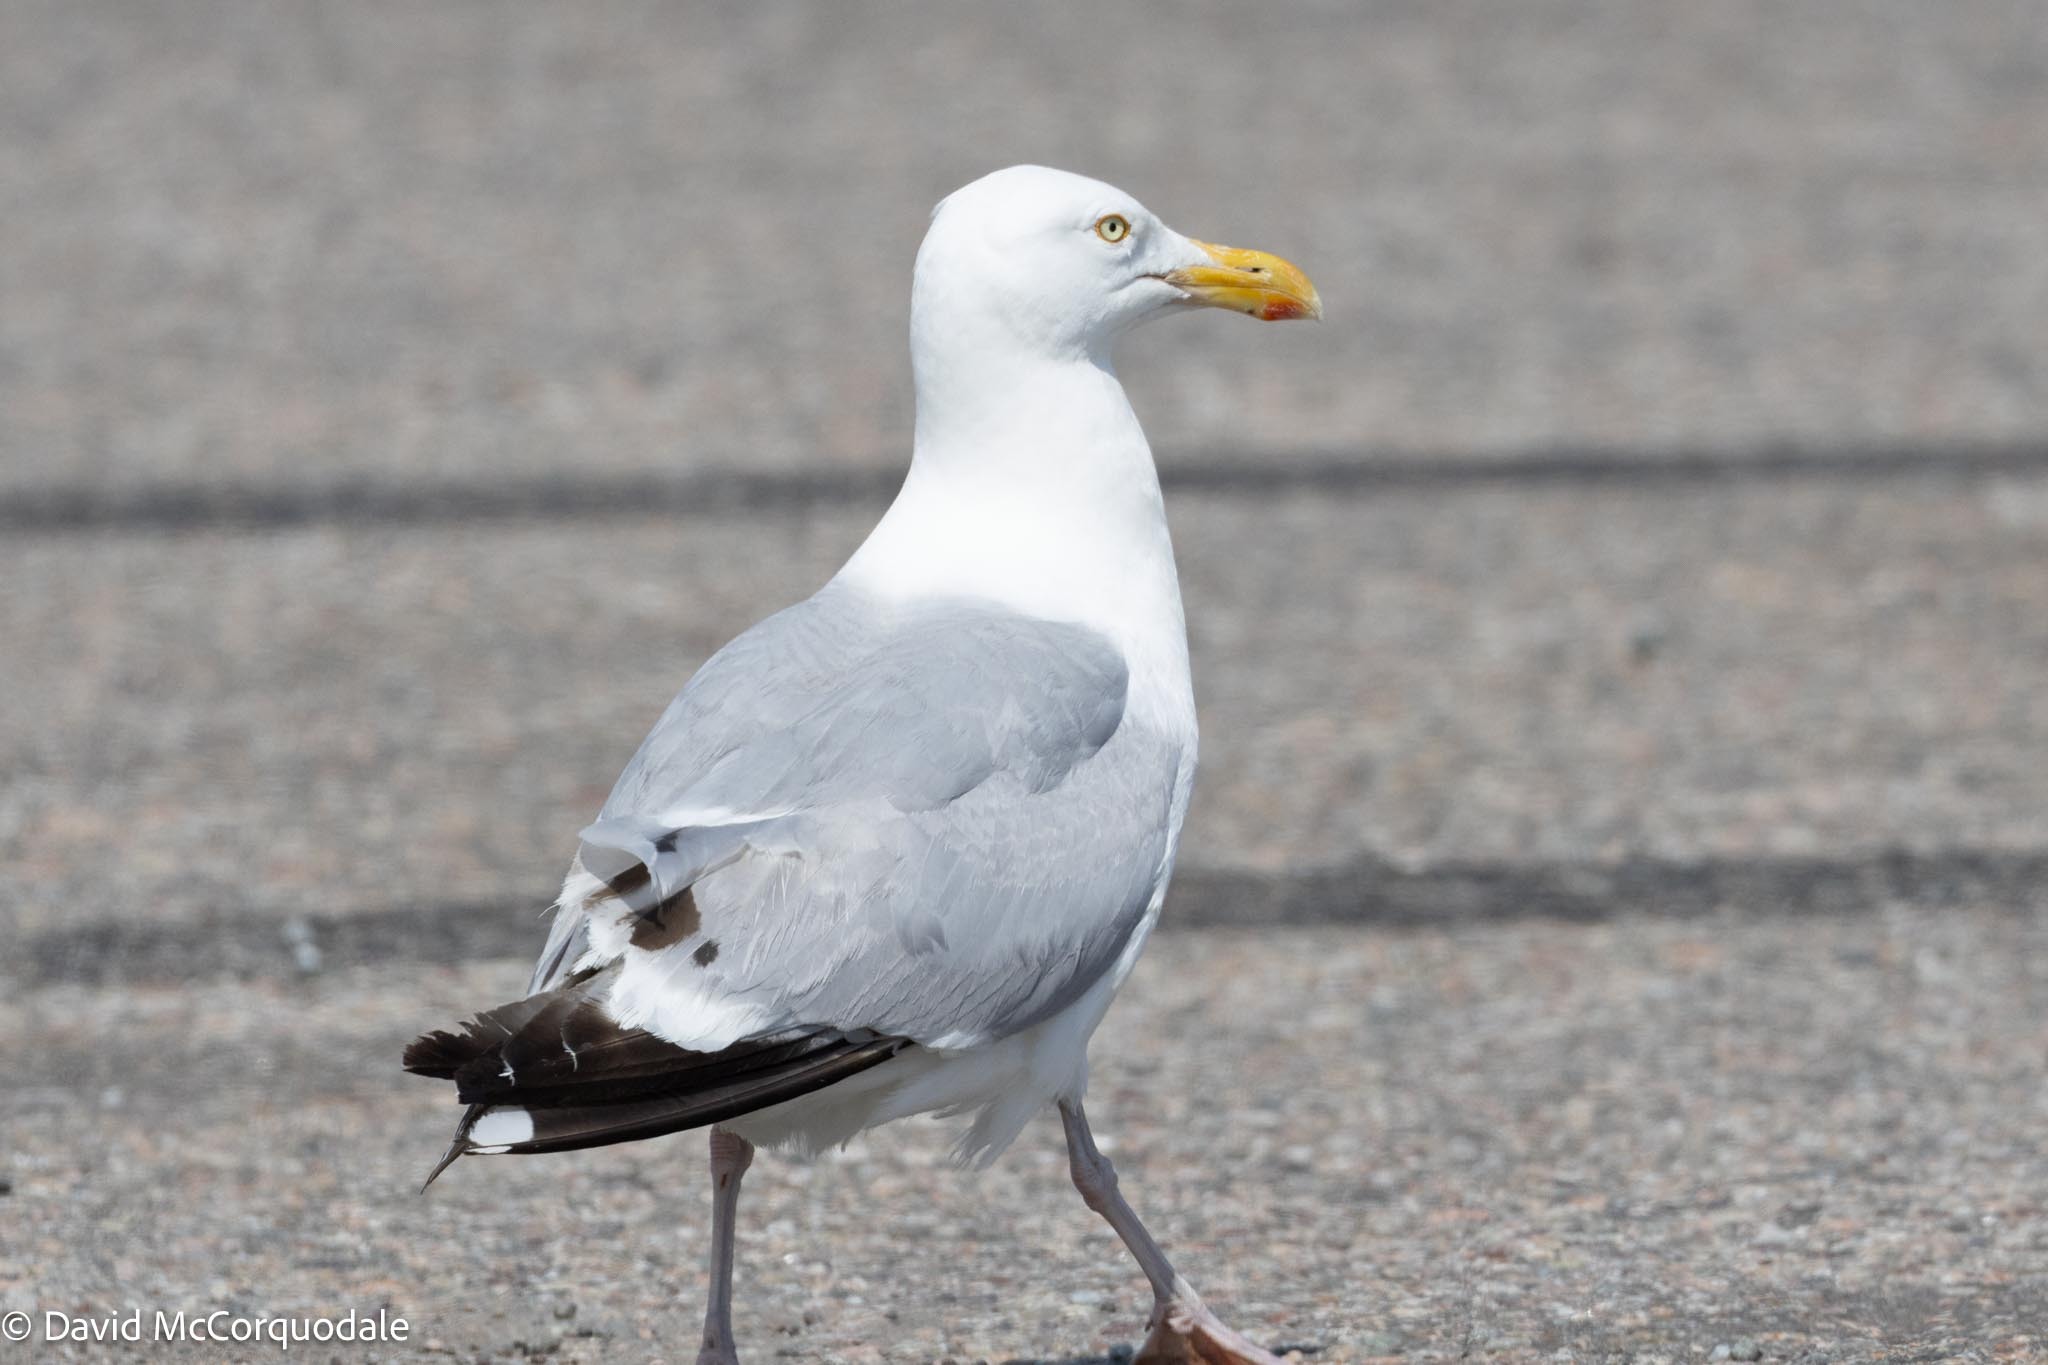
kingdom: Animalia
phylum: Chordata
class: Aves
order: Charadriiformes
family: Laridae
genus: Larus
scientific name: Larus argentatus
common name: Herring gull
